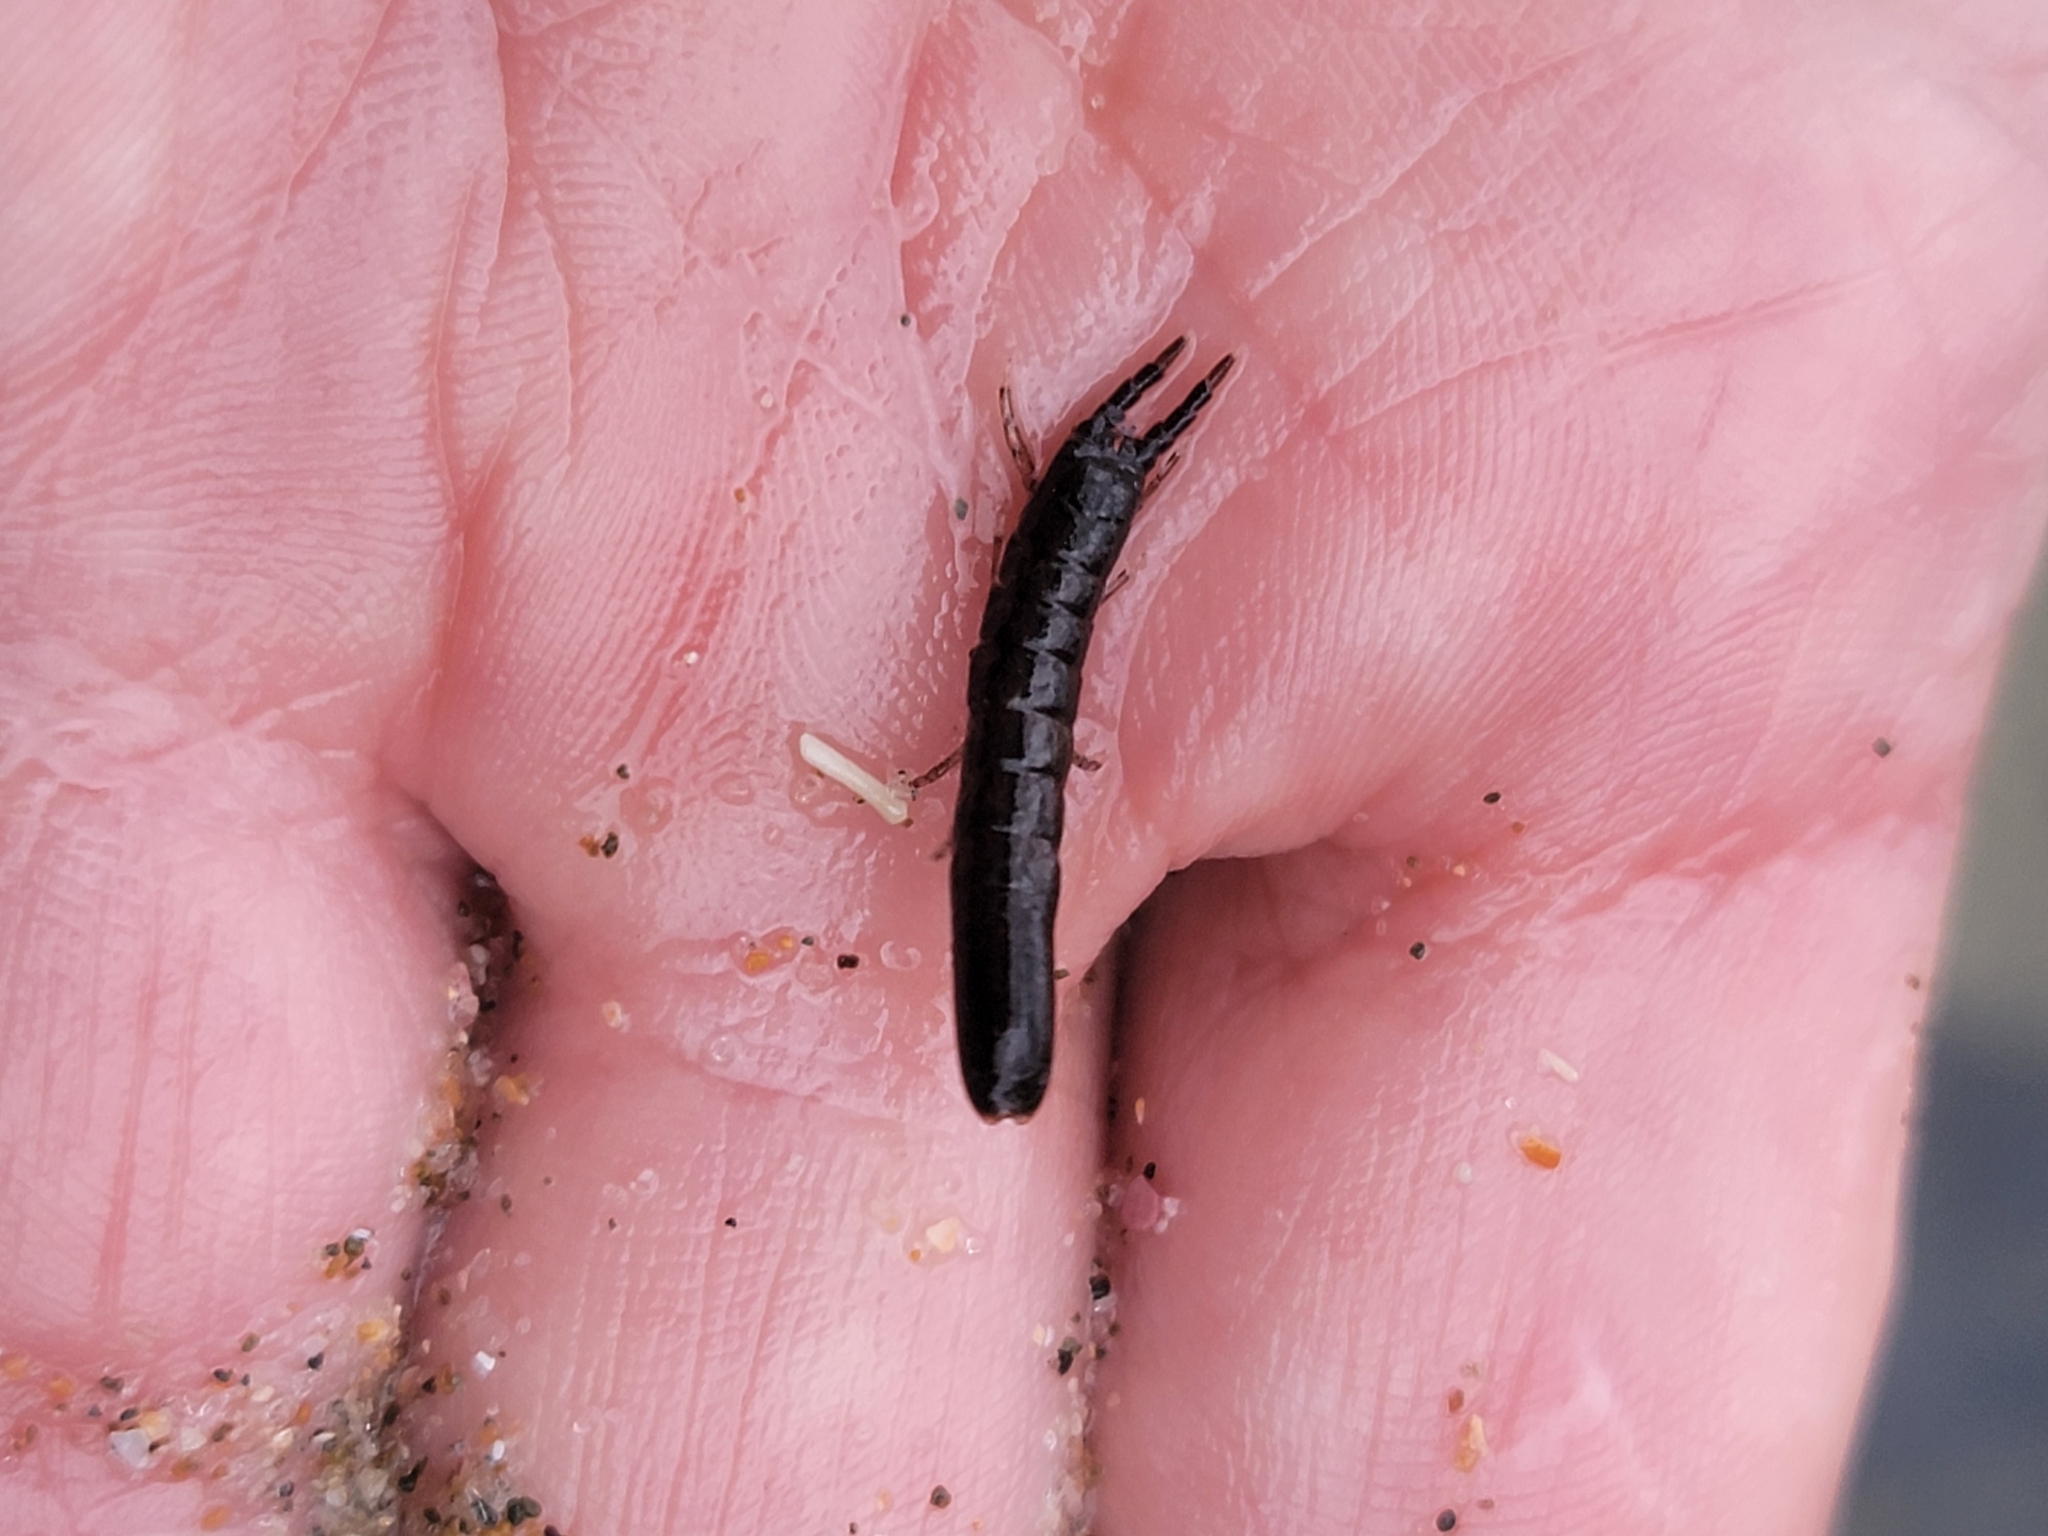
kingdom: Animalia
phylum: Arthropoda
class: Malacostraca
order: Isopoda
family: Idoteidae
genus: Batedotea
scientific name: Batedotea elongata
